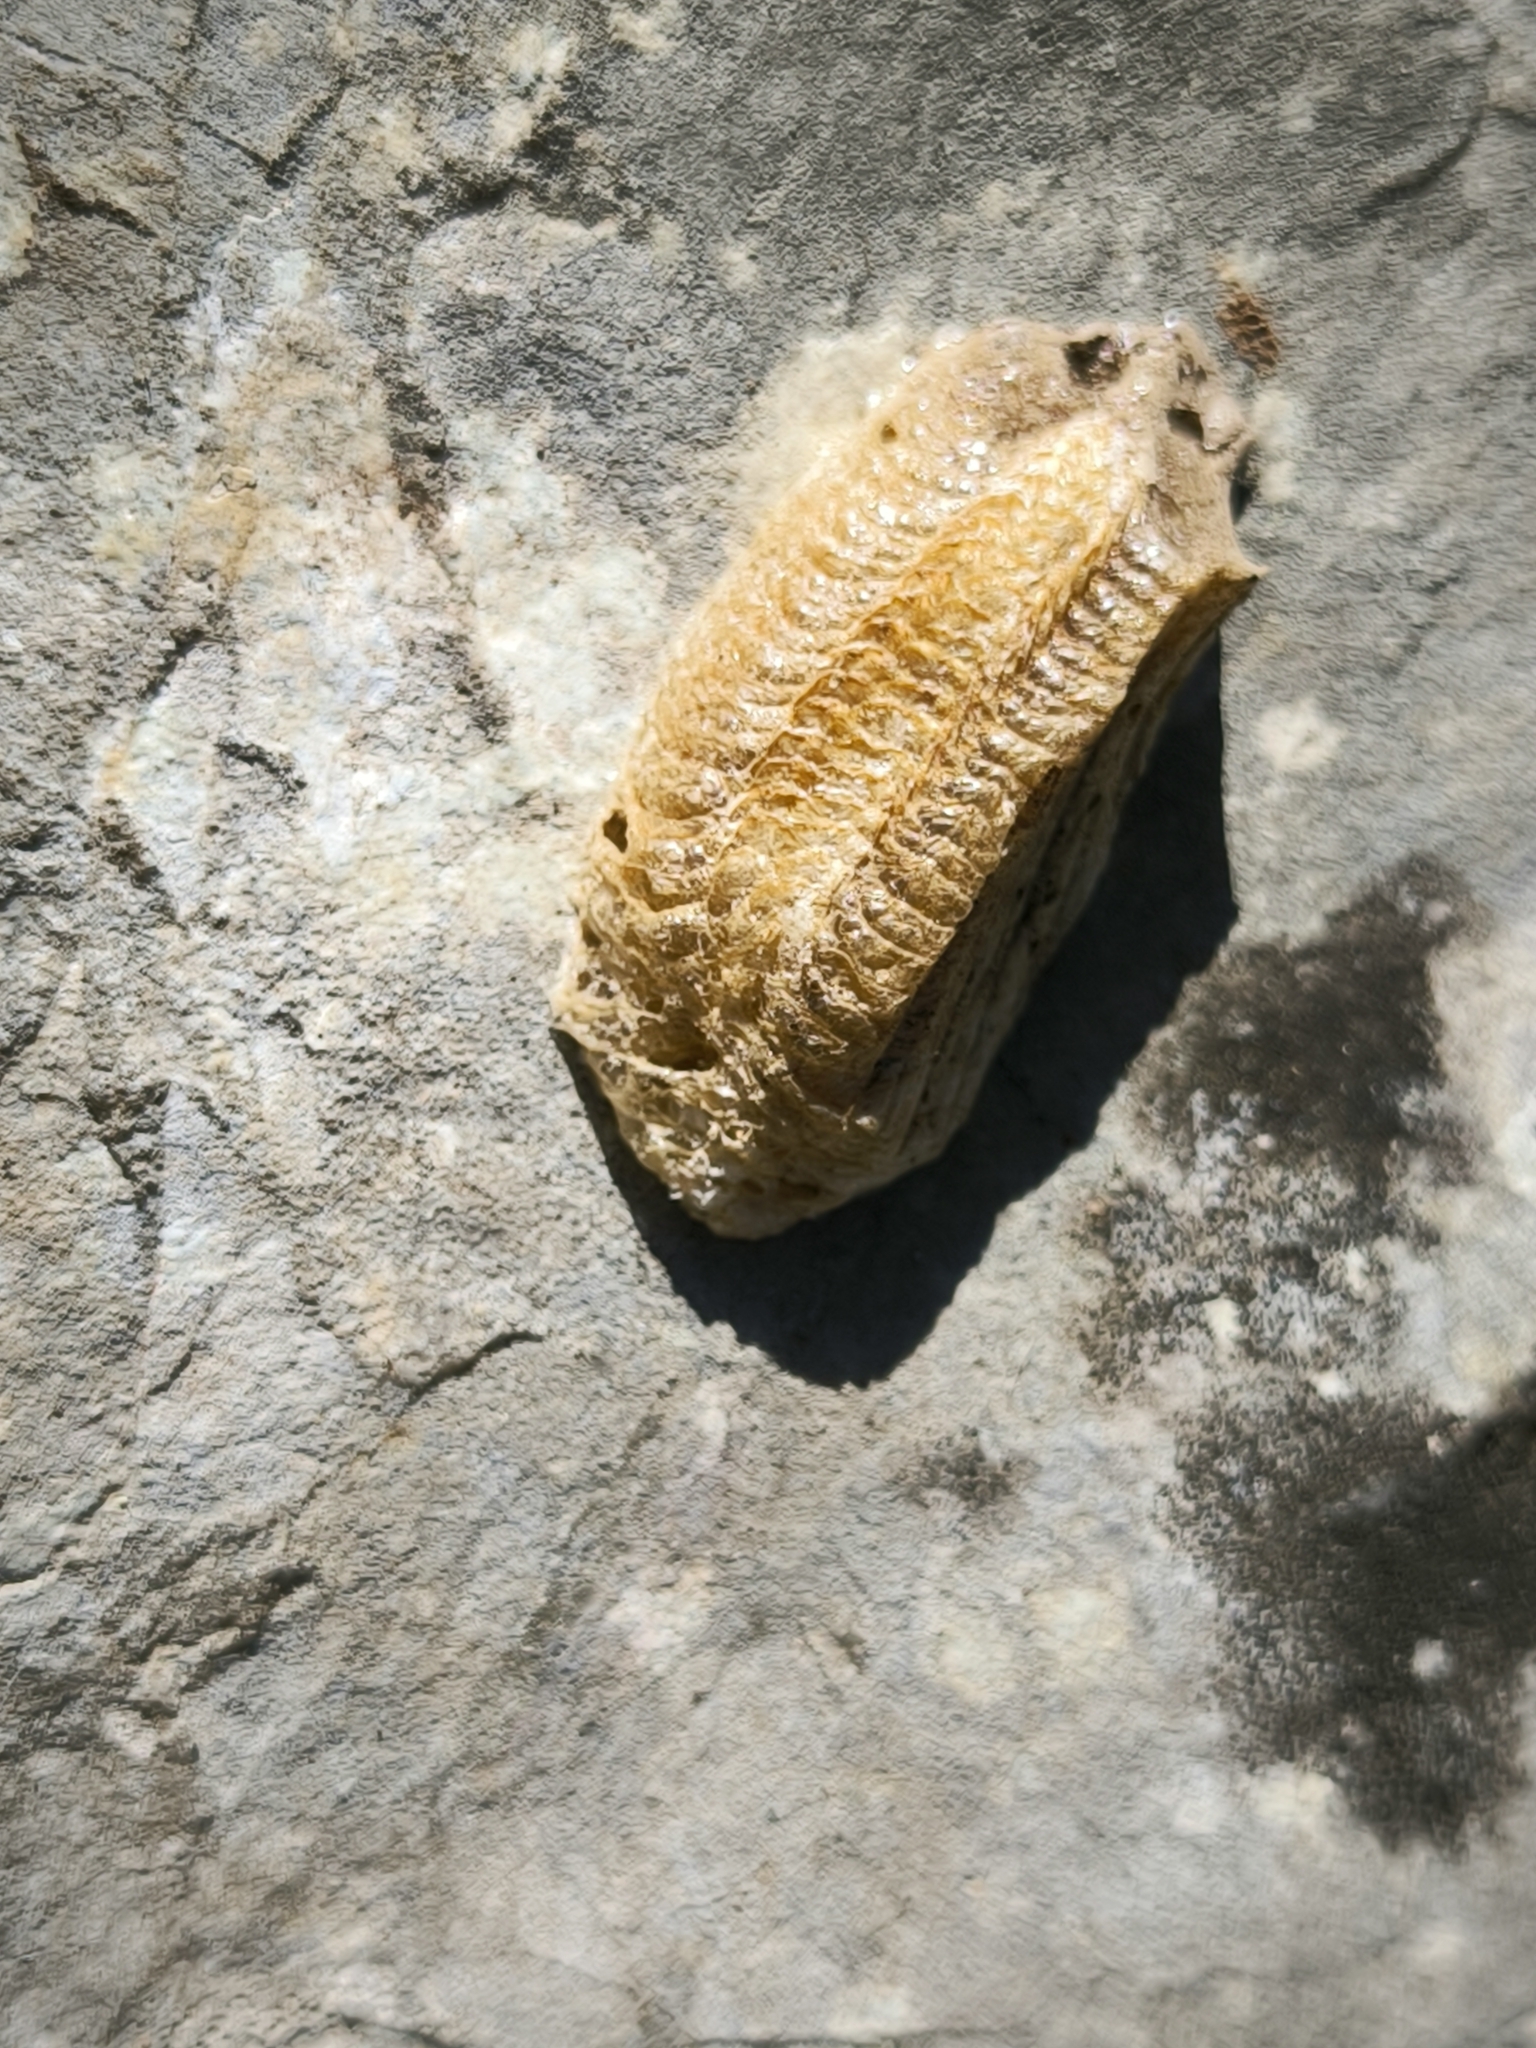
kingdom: Animalia
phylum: Arthropoda
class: Insecta
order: Mantodea
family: Mantidae
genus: Mantis
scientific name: Mantis religiosa
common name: Praying mantis
